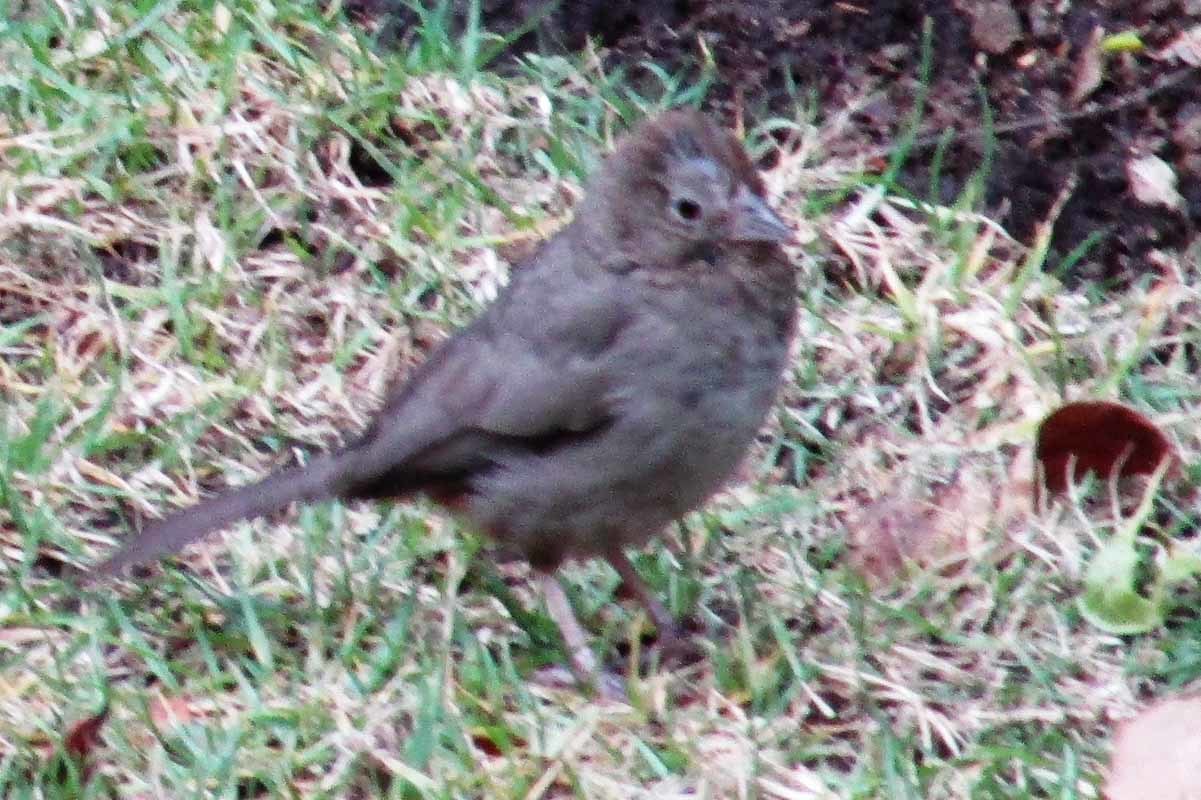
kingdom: Animalia
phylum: Chordata
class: Aves
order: Passeriformes
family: Passerellidae
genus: Melozone
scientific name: Melozone fusca
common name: Canyon towhee
